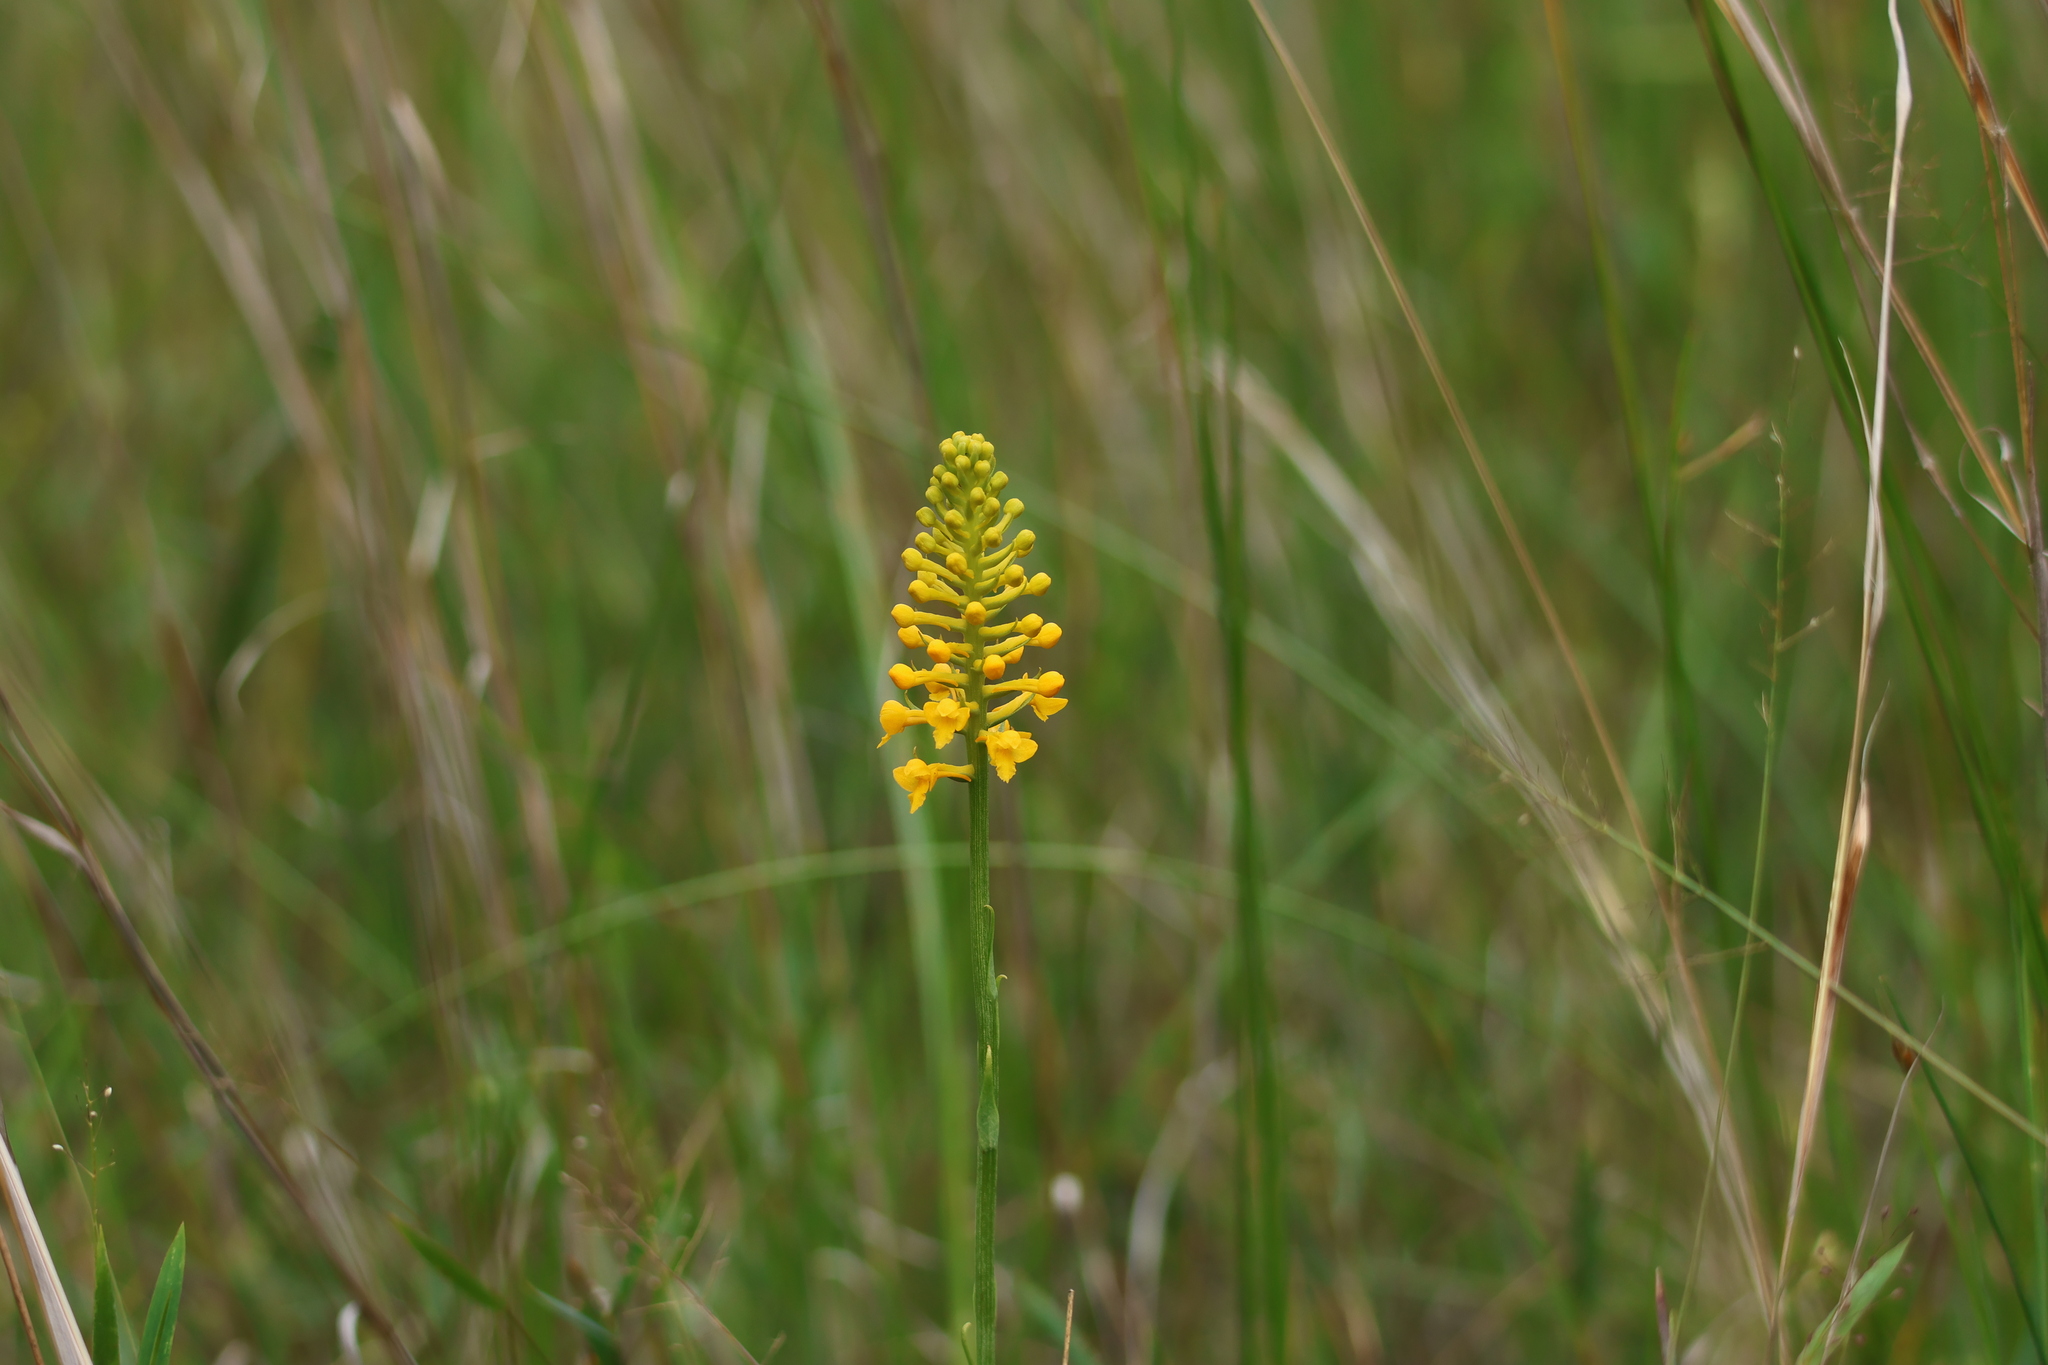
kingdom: Plantae
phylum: Tracheophyta
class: Liliopsida
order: Asparagales
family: Orchidaceae
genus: Platanthera
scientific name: Platanthera integra
